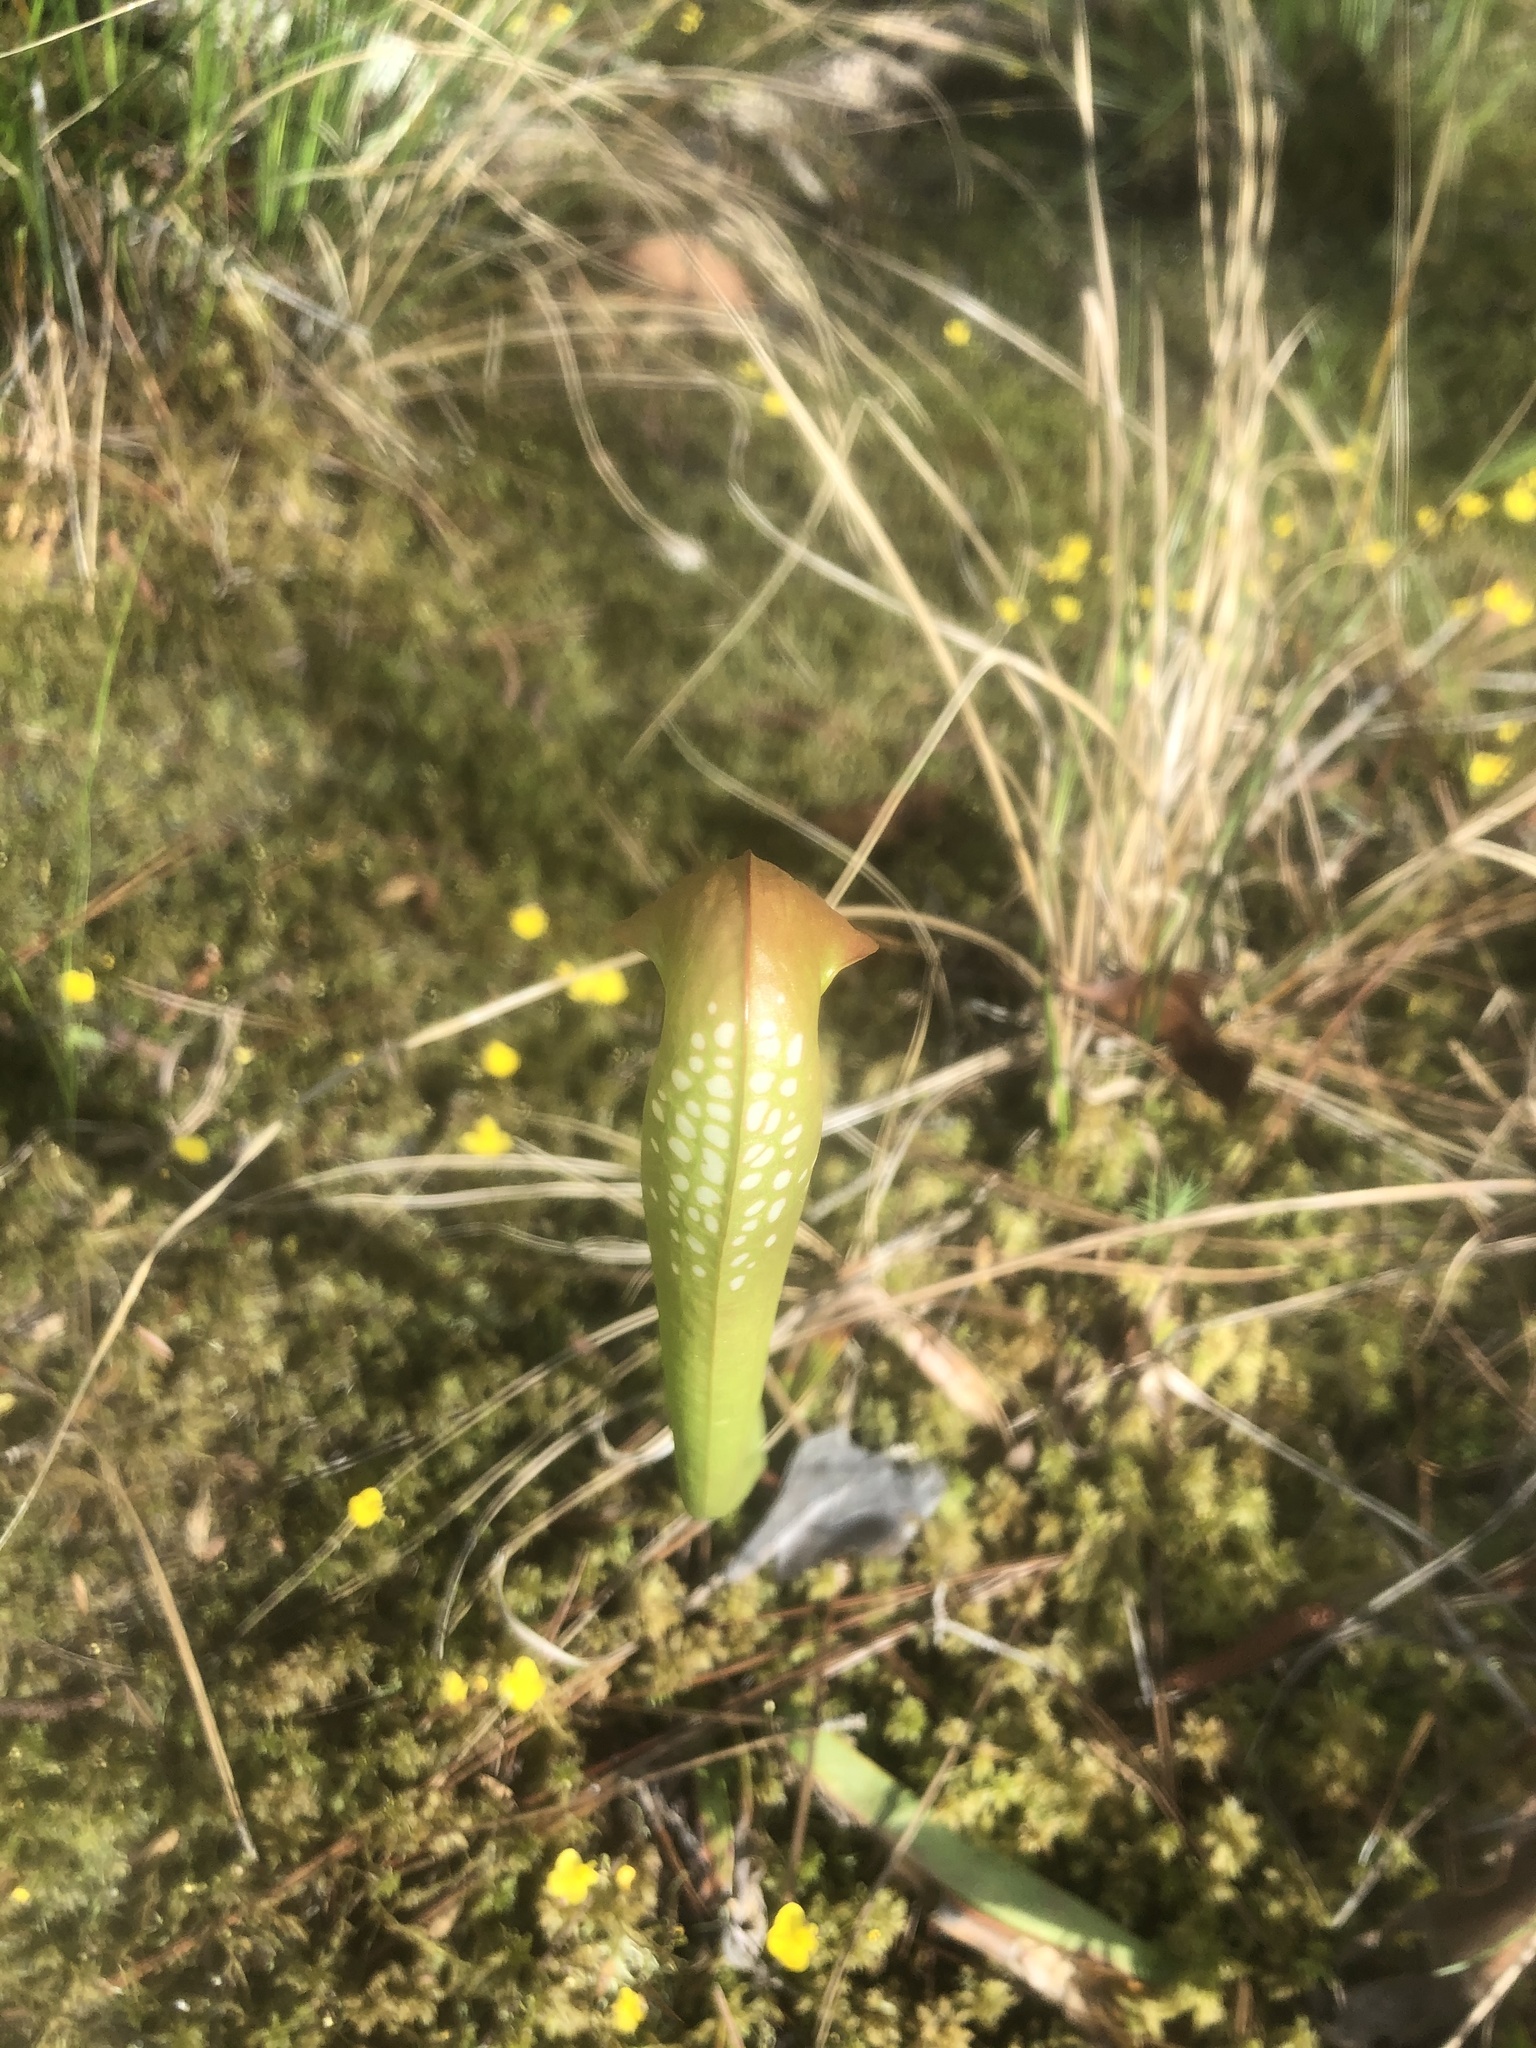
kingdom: Plantae
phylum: Tracheophyta
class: Magnoliopsida
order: Ericales
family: Sarraceniaceae
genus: Sarracenia
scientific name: Sarracenia minor
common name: Rainhat-trumpet
